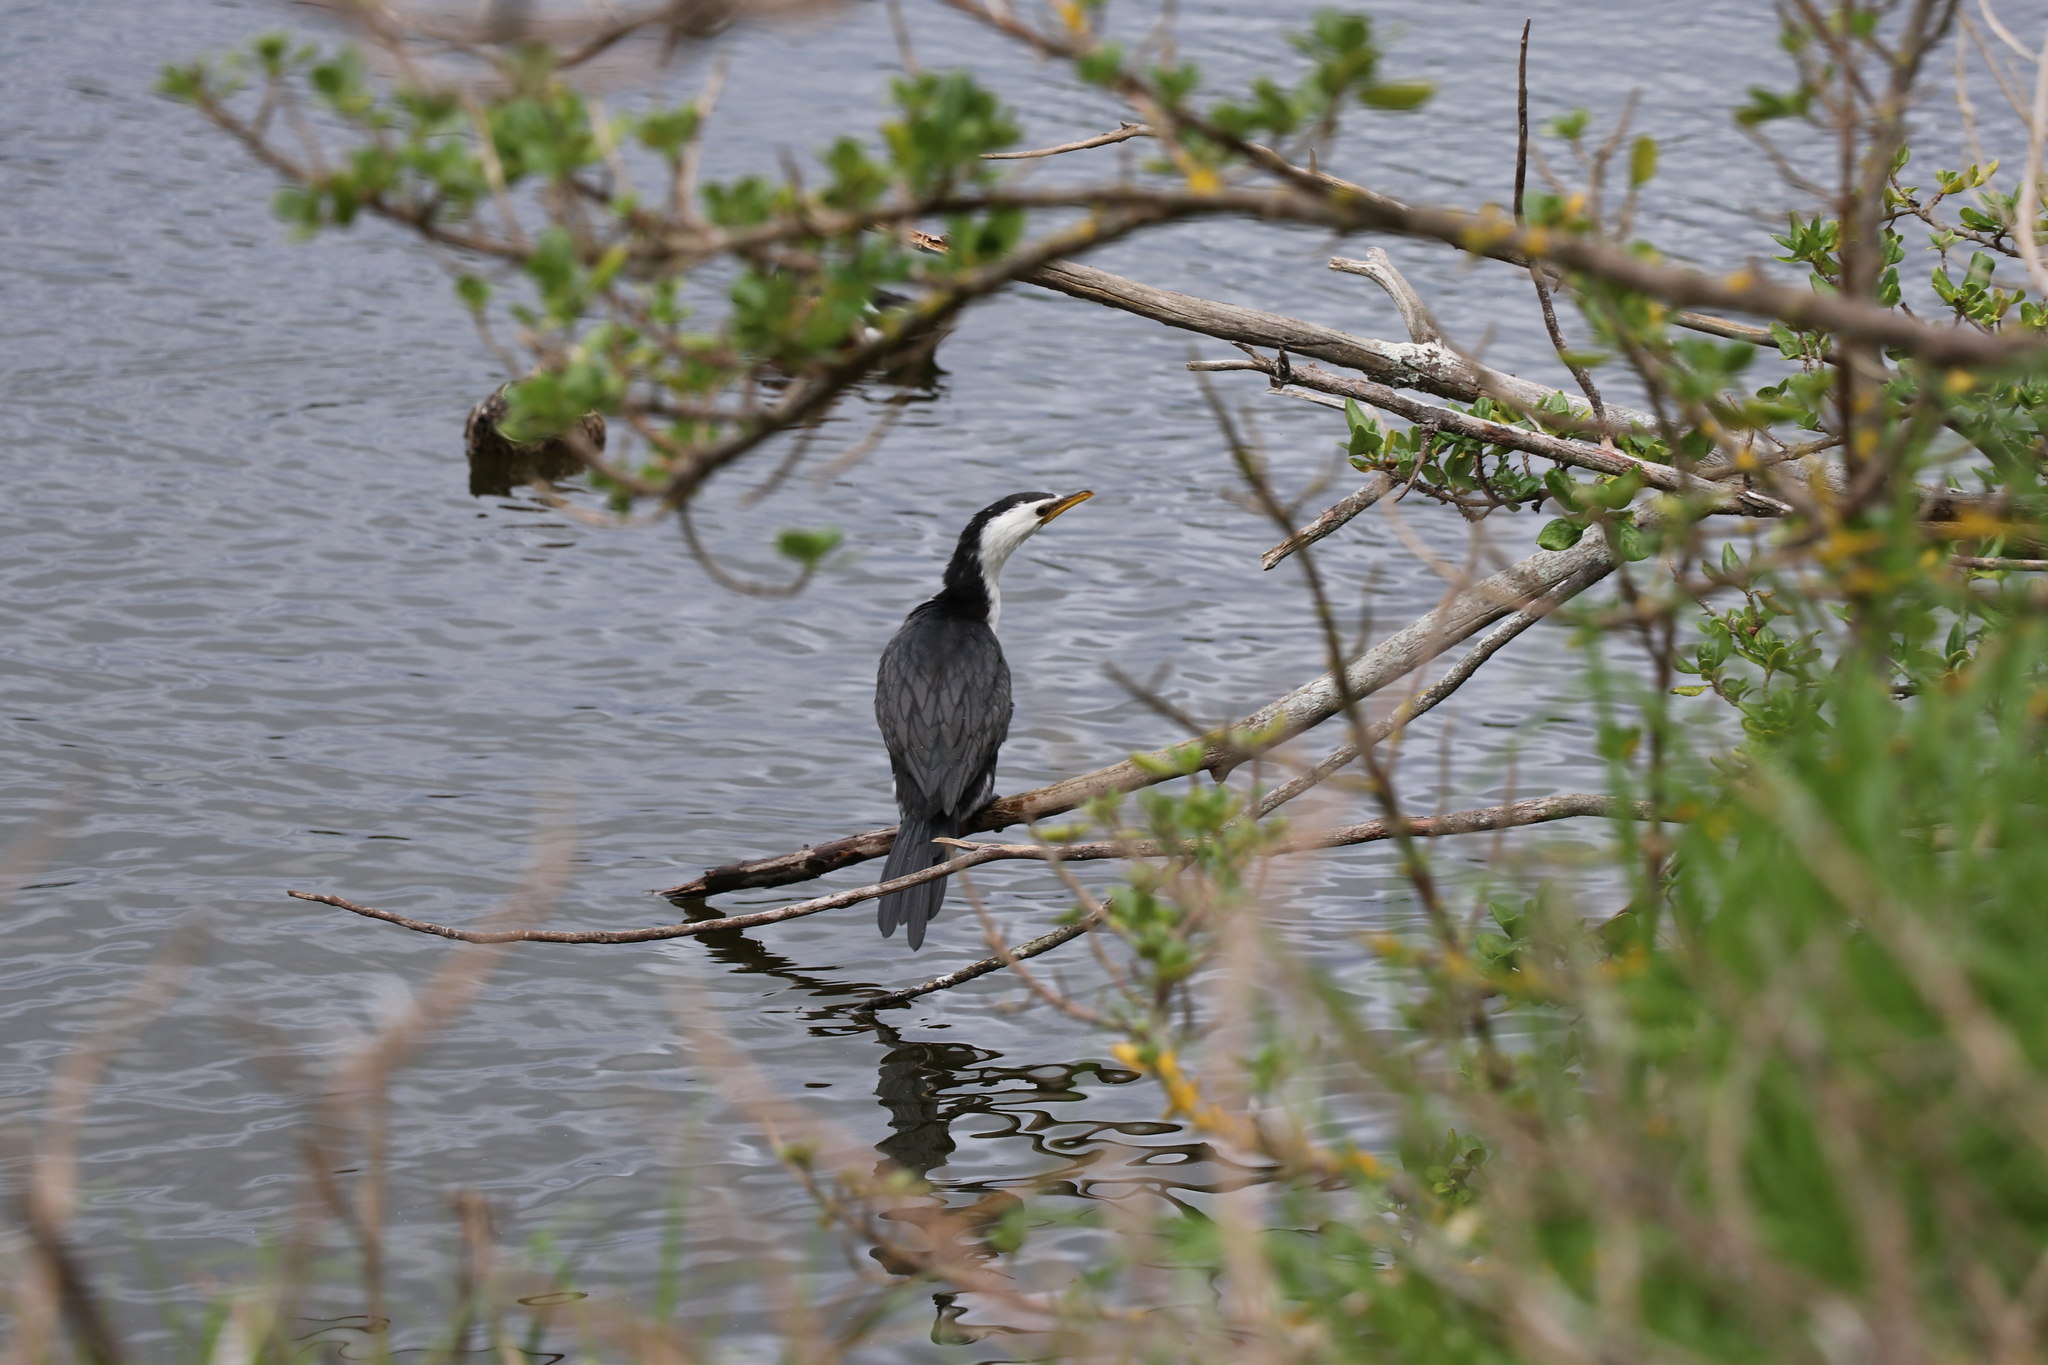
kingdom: Animalia
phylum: Chordata
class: Aves
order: Suliformes
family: Phalacrocoracidae
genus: Microcarbo
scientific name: Microcarbo melanoleucos
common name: Little pied cormorant
